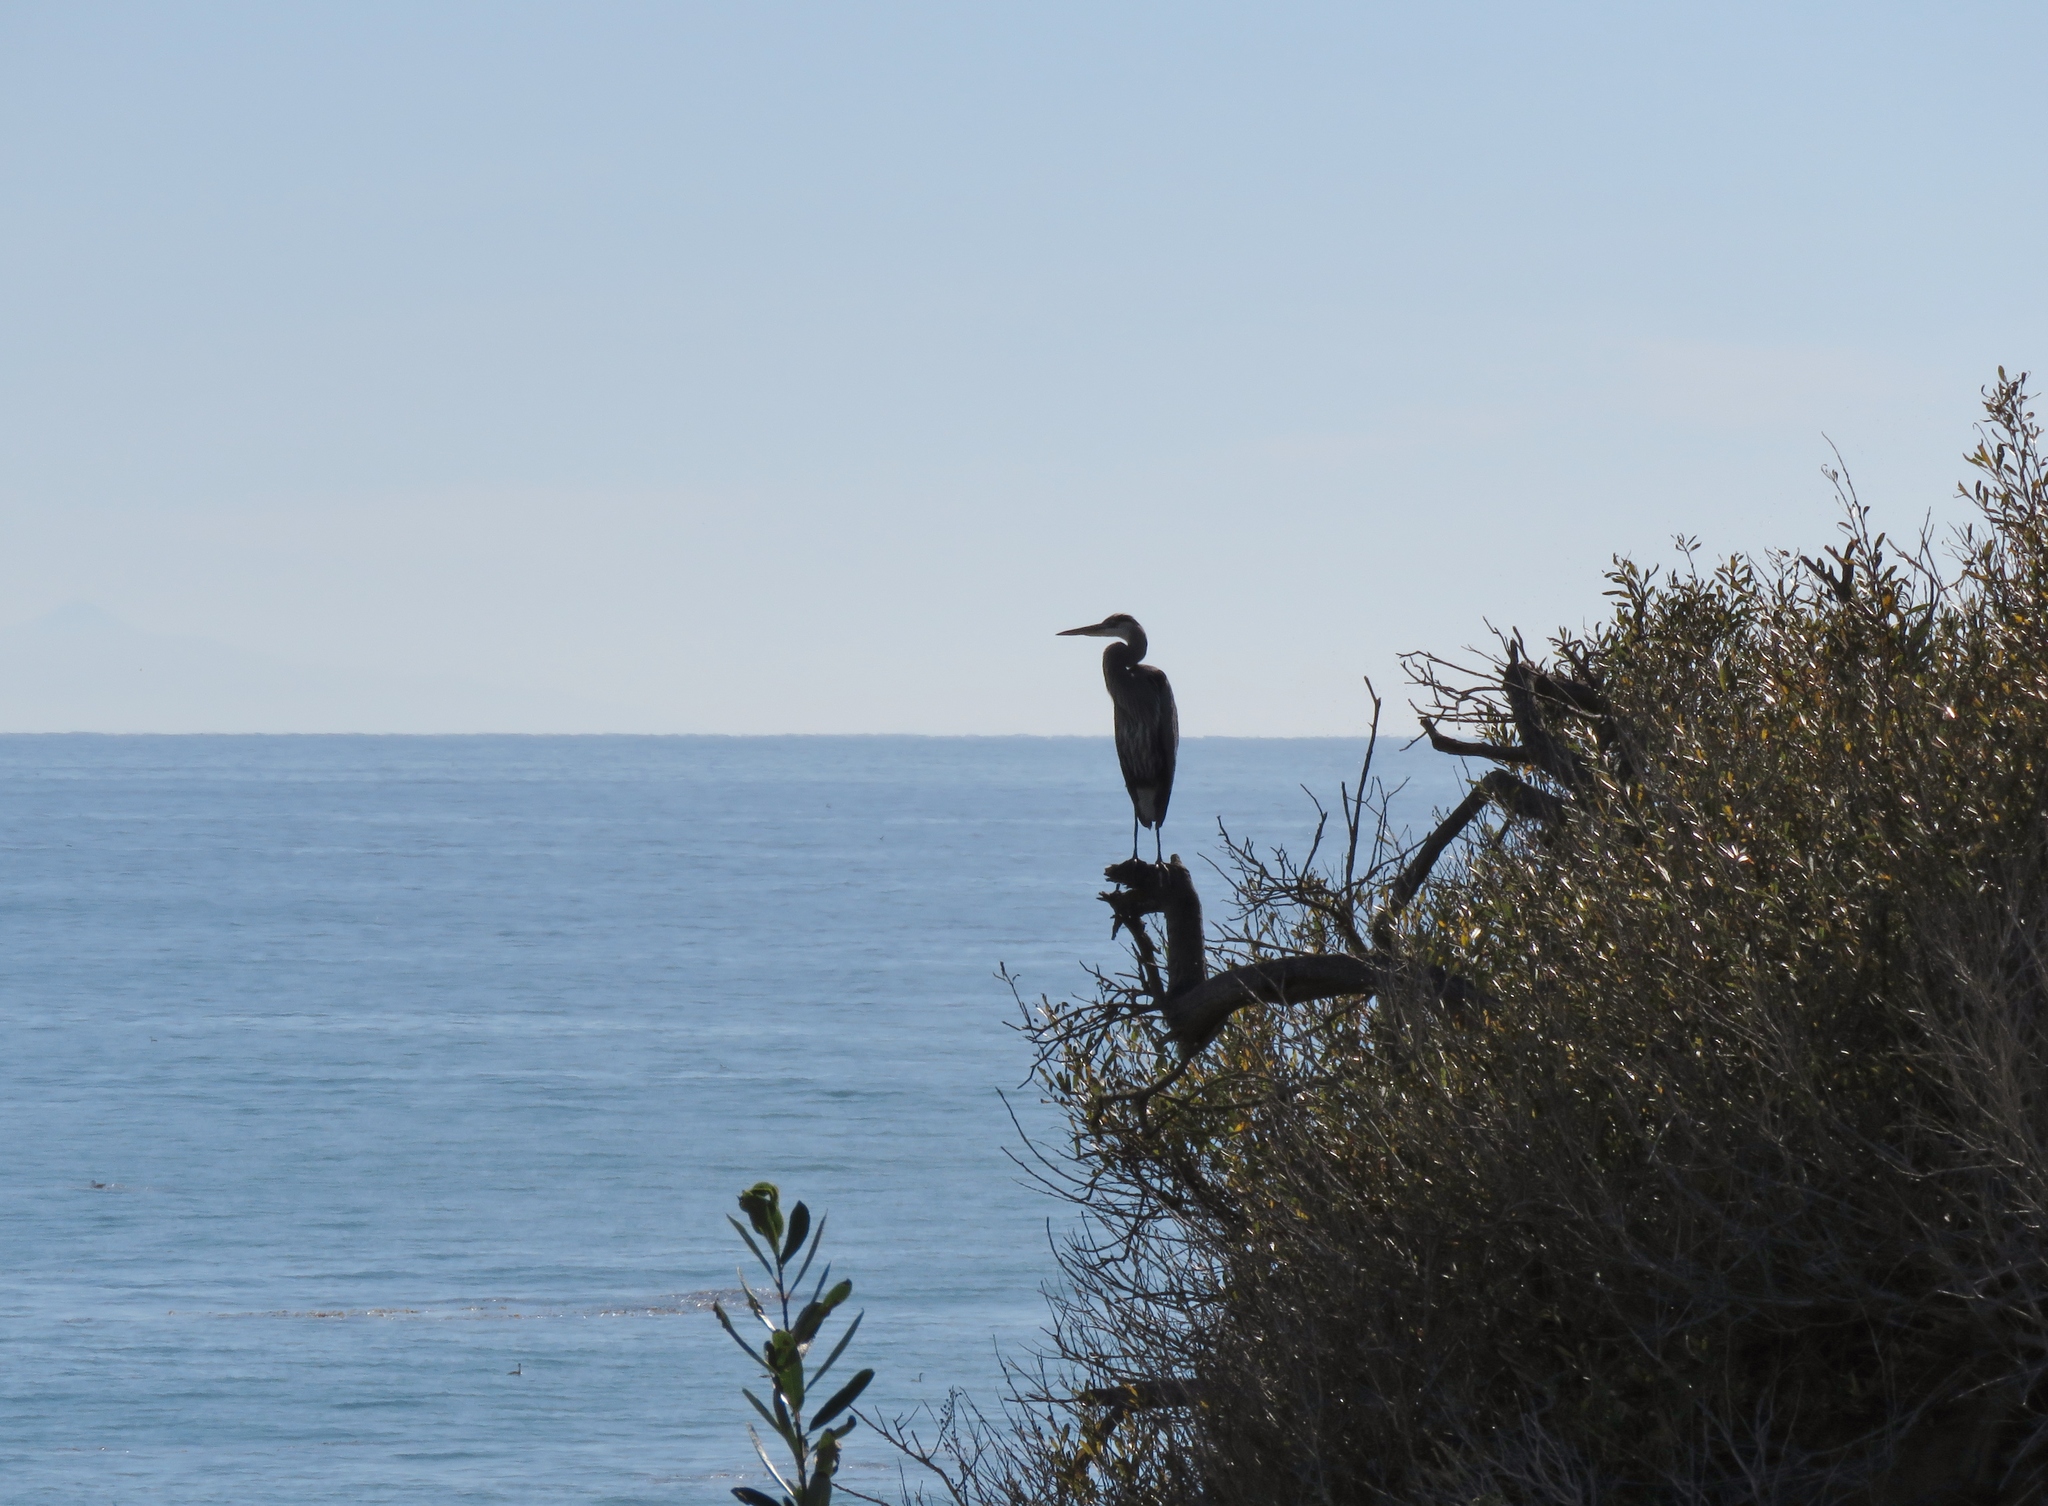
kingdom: Animalia
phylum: Chordata
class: Aves
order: Pelecaniformes
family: Ardeidae
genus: Ardea
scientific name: Ardea herodias
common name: Great blue heron
